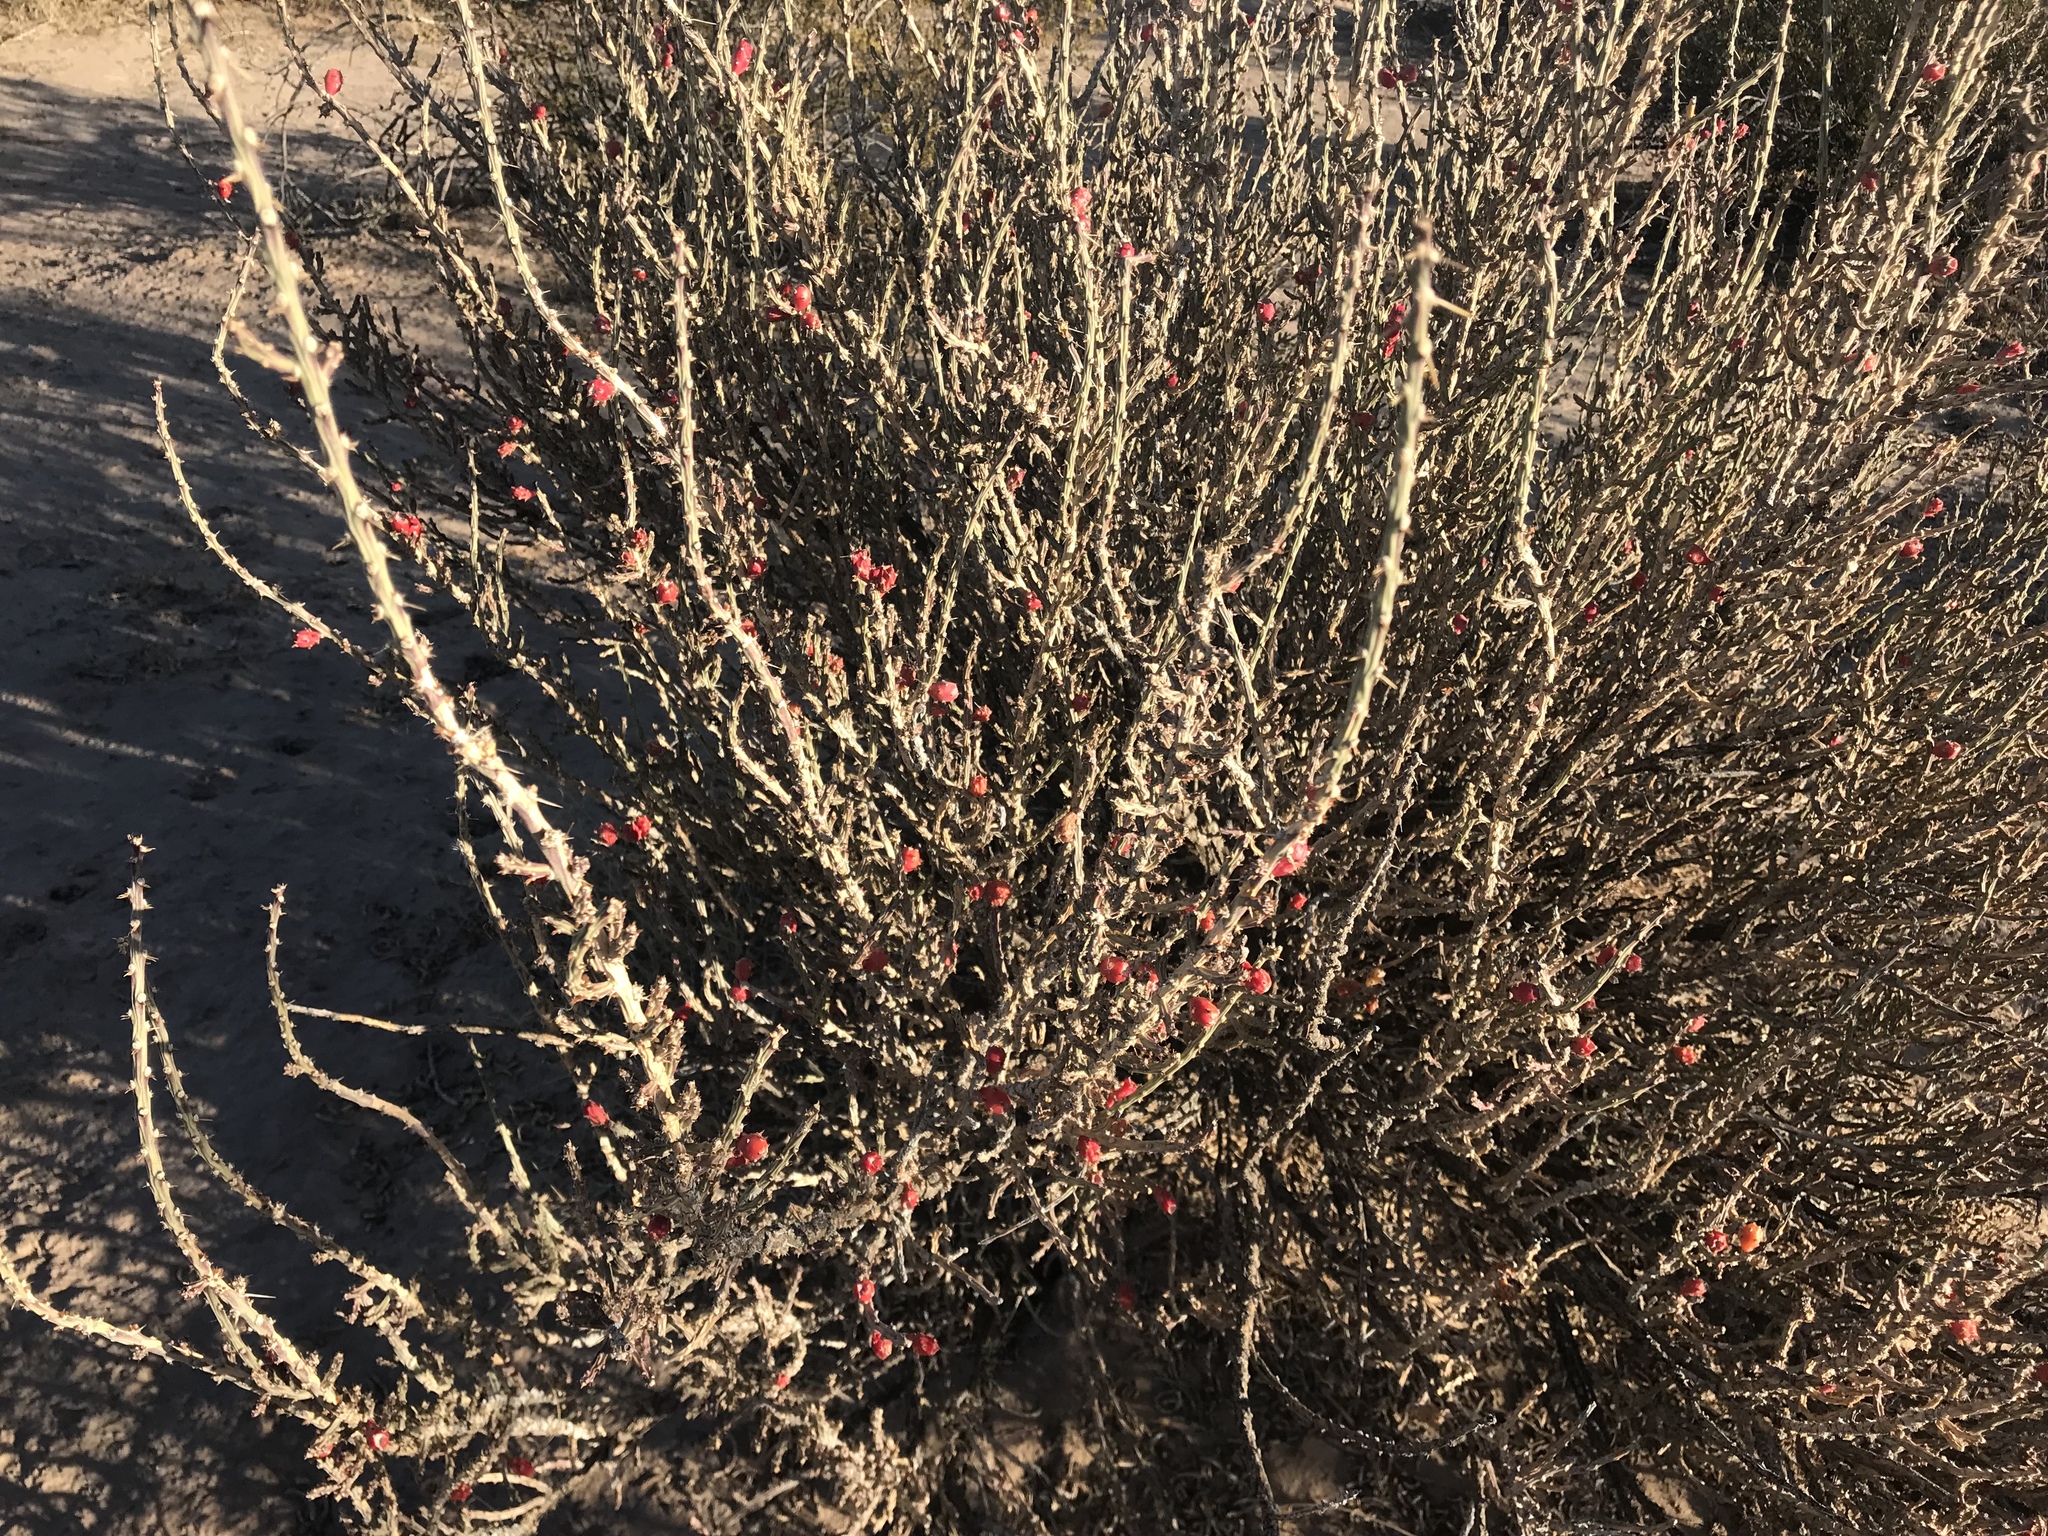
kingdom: Plantae
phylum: Tracheophyta
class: Magnoliopsida
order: Caryophyllales
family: Cactaceae
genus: Cylindropuntia
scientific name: Cylindropuntia leptocaulis
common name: Christmas cactus
